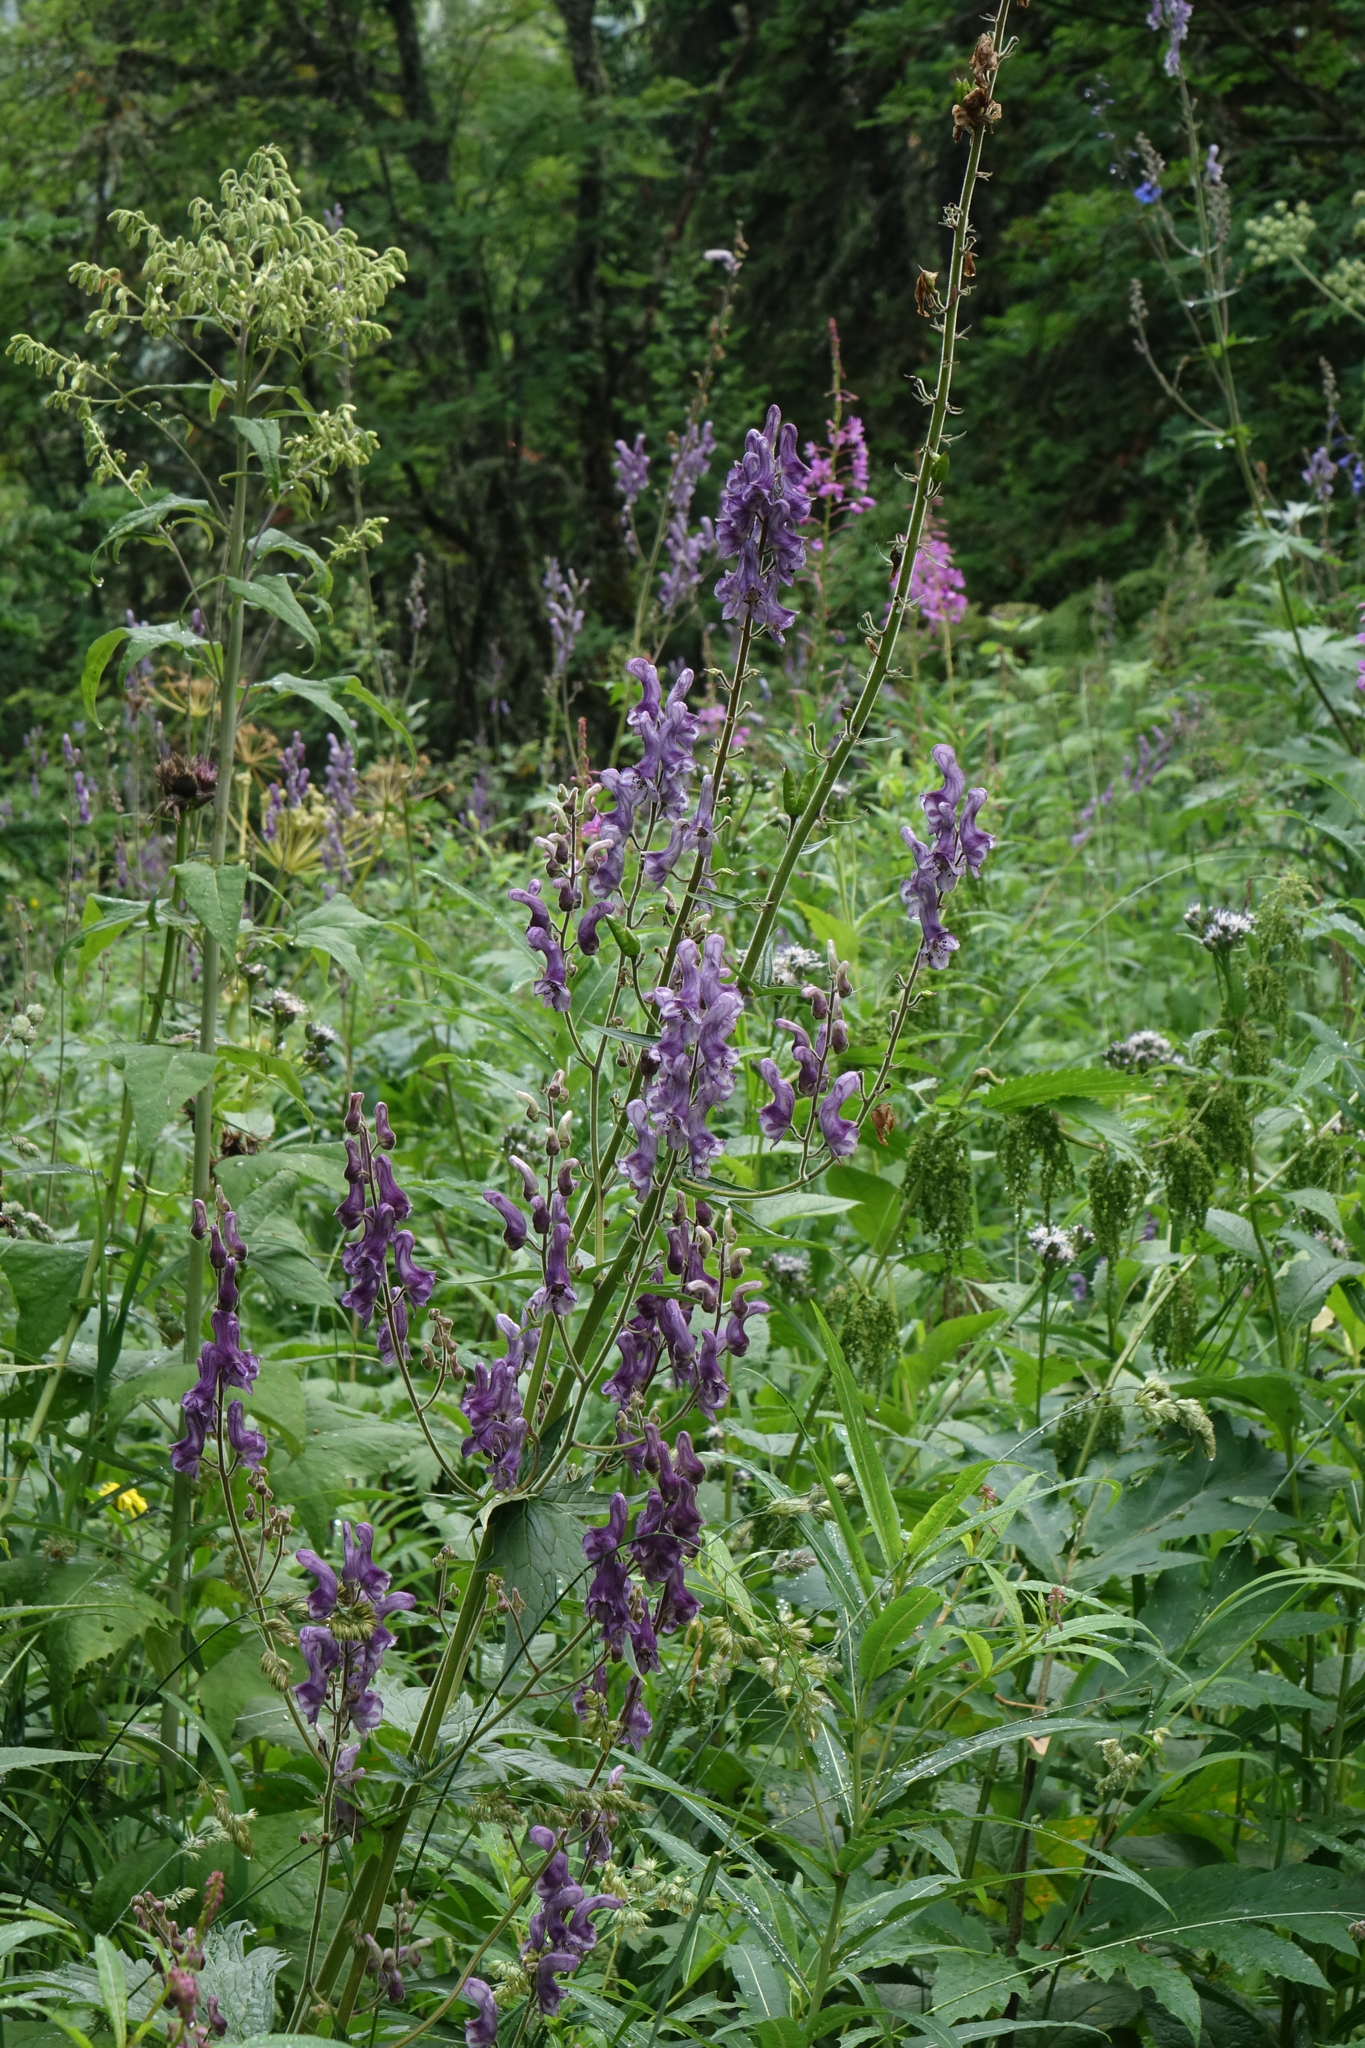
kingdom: Plantae
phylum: Tracheophyta
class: Magnoliopsida
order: Ranunculales
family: Ranunculaceae
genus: Aconitum
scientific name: Aconitum septentrionale
